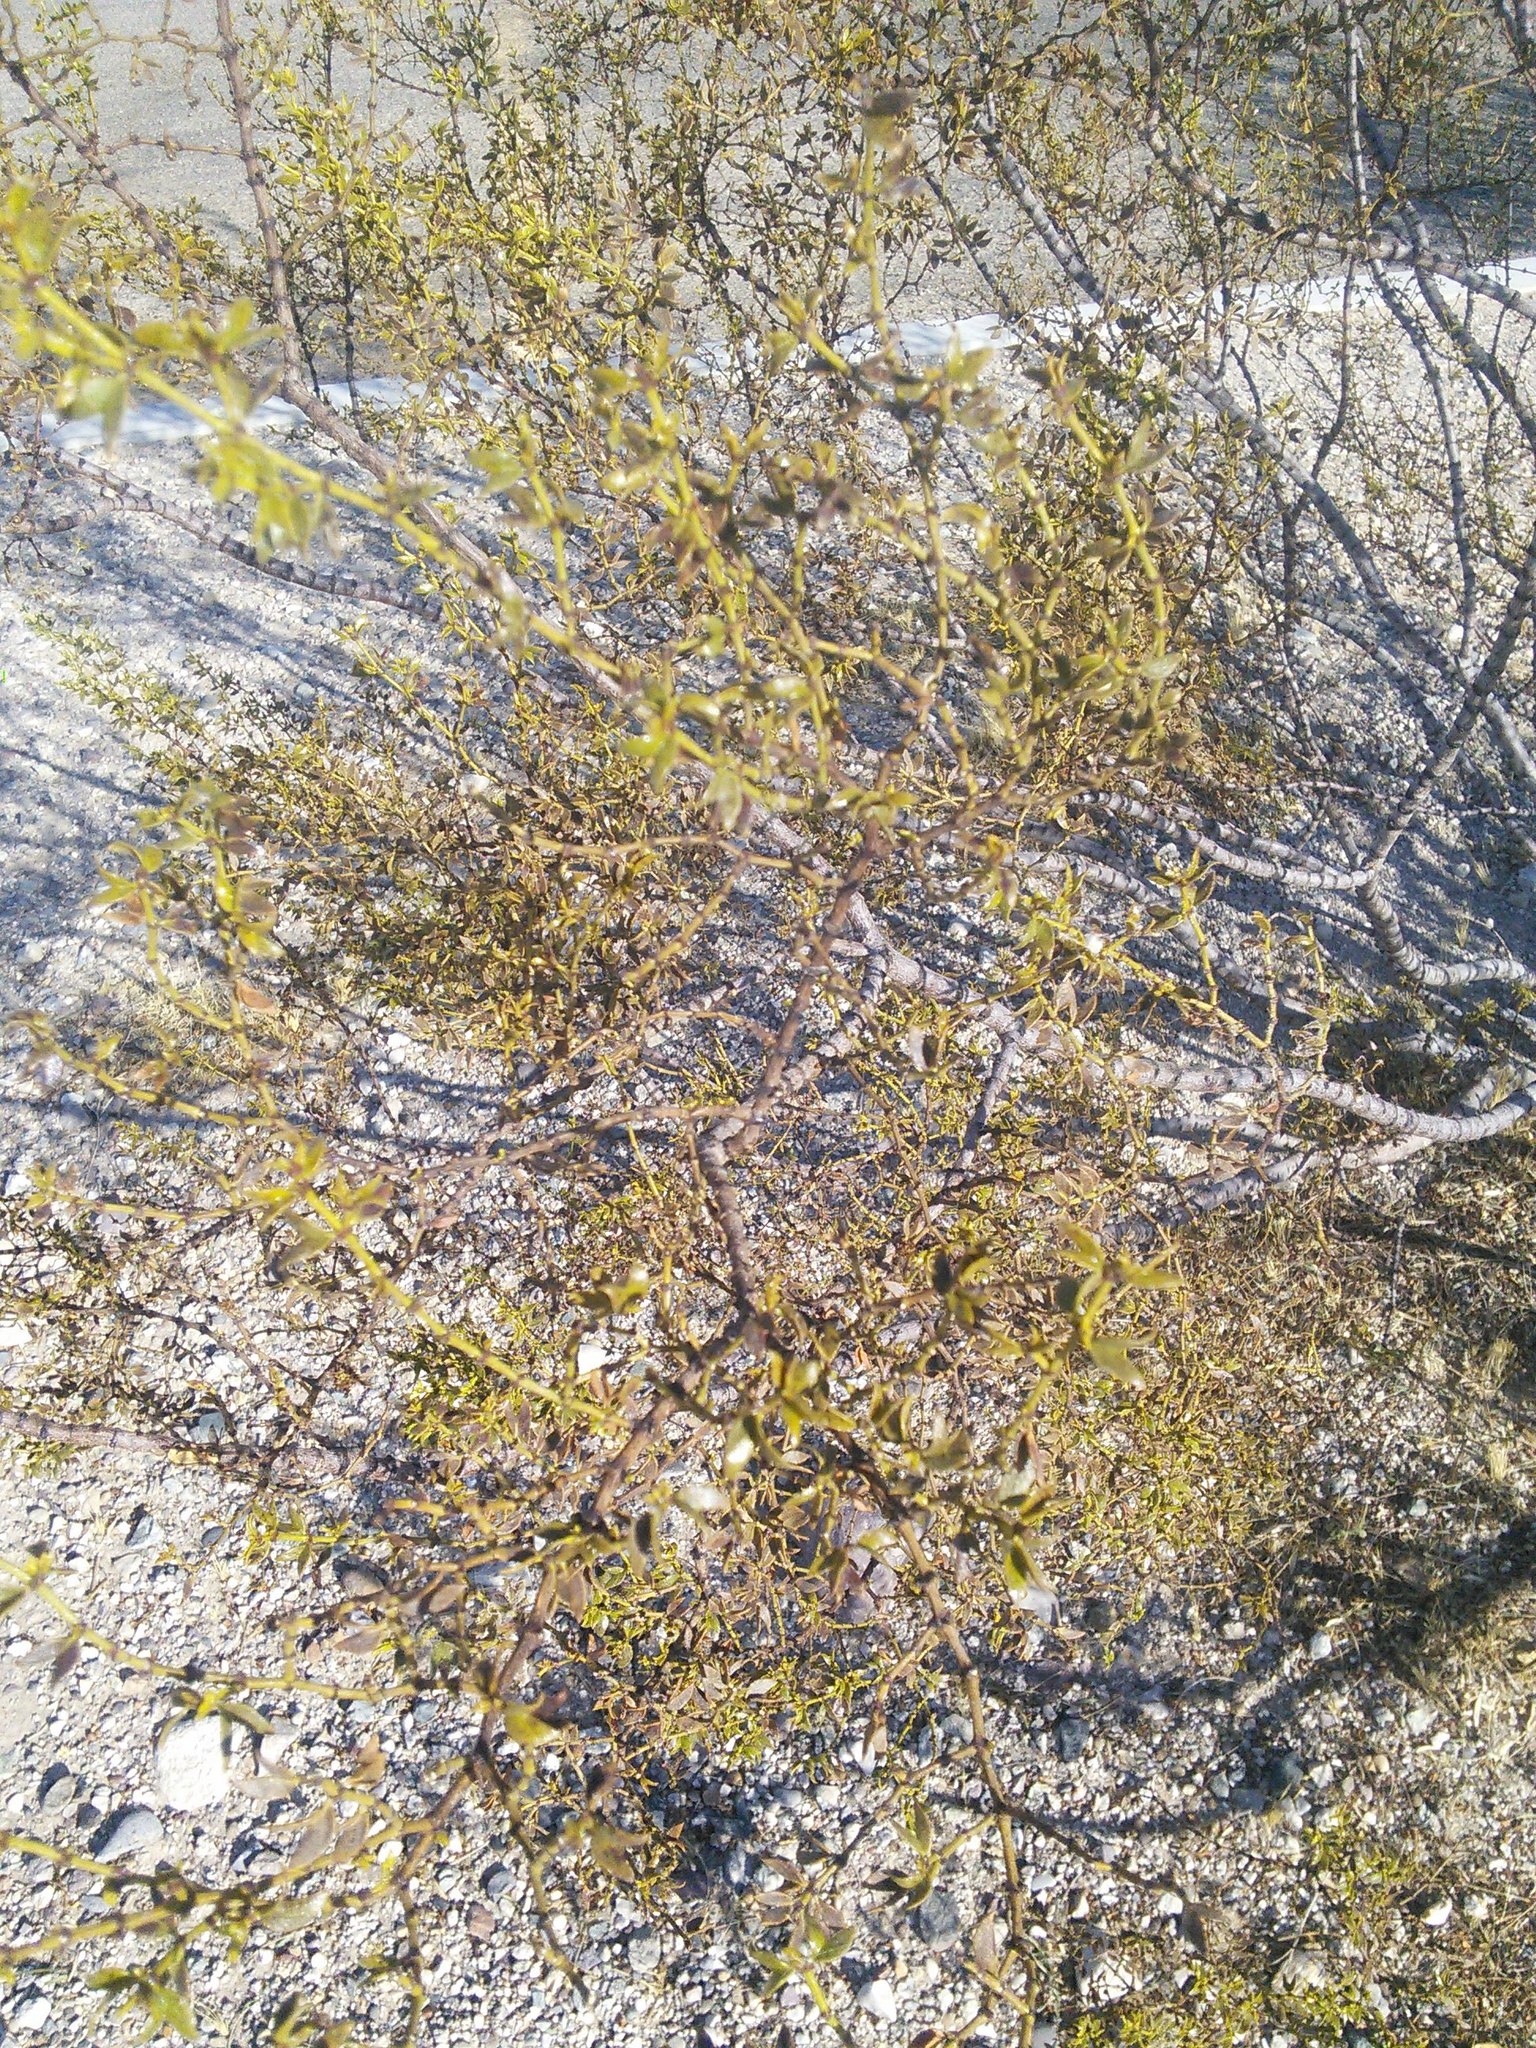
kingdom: Plantae
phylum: Tracheophyta
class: Magnoliopsida
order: Zygophyllales
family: Zygophyllaceae
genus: Larrea
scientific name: Larrea tridentata
